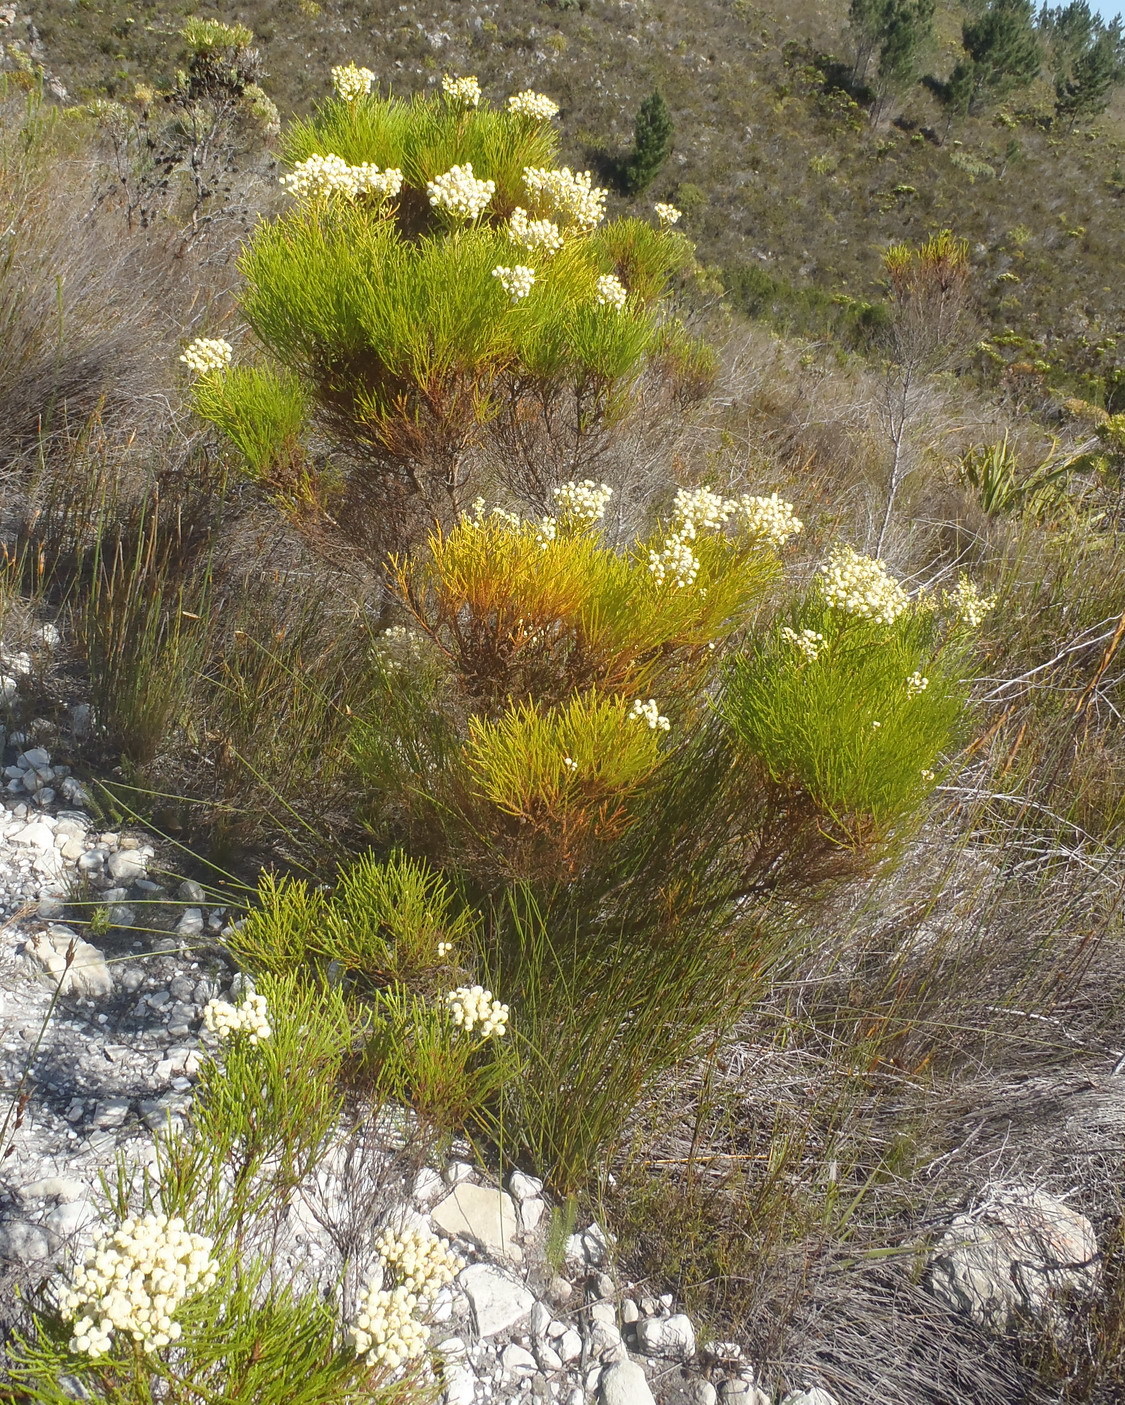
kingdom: Plantae
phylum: Tracheophyta
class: Magnoliopsida
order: Bruniales
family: Bruniaceae
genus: Berzelia
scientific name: Berzelia lanuginosa
